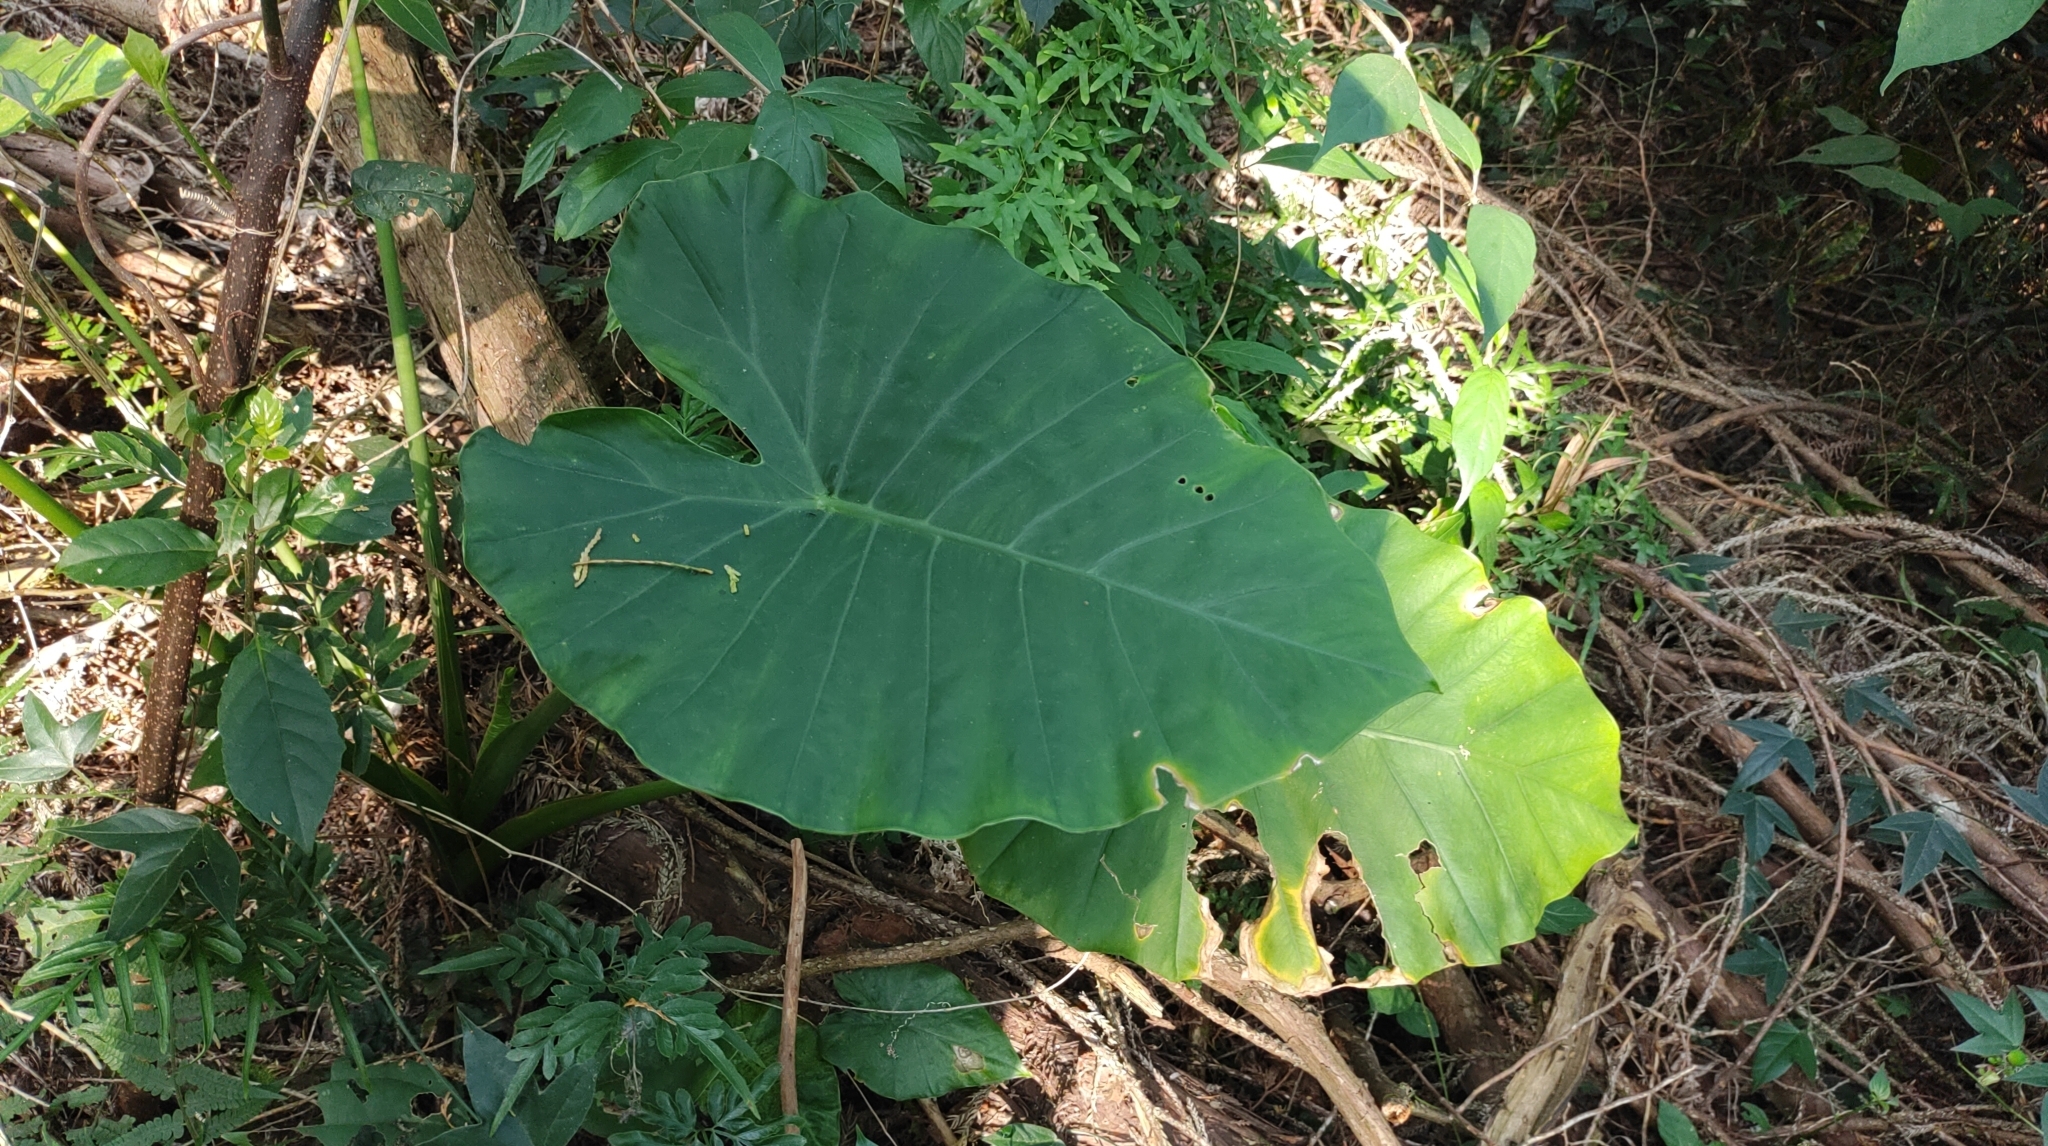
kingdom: Plantae
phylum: Tracheophyta
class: Liliopsida
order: Alismatales
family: Araceae
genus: Alocasia
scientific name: Alocasia odora
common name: Asian taro
